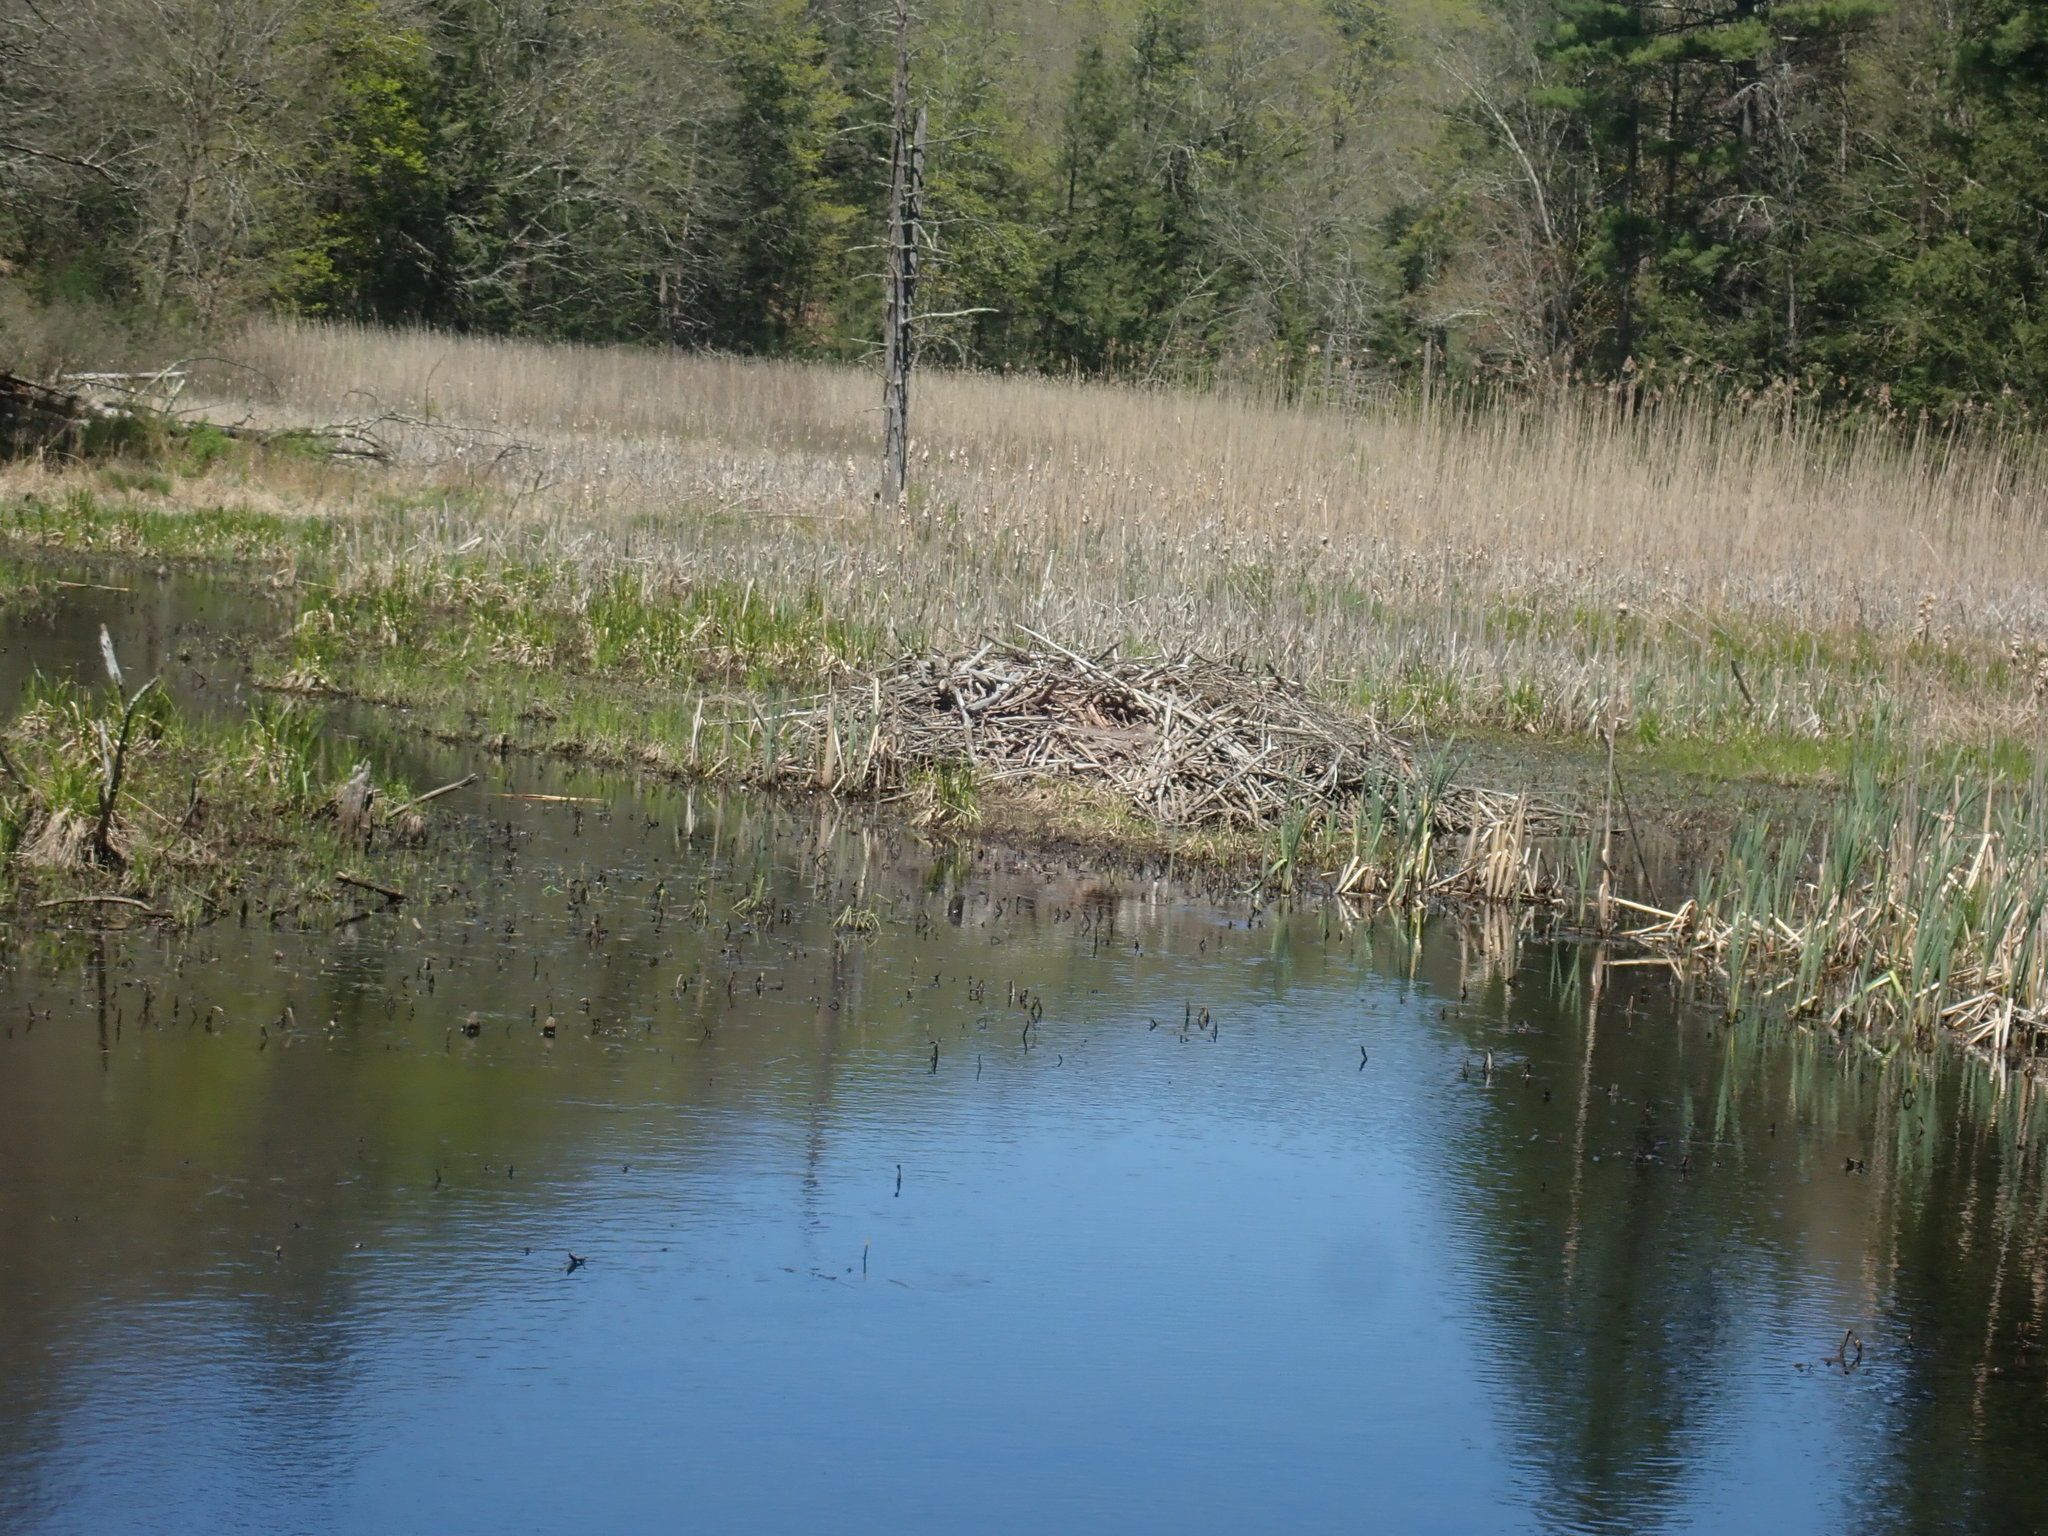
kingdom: Animalia
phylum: Chordata
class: Mammalia
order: Rodentia
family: Castoridae
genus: Castor
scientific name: Castor canadensis
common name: American beaver
